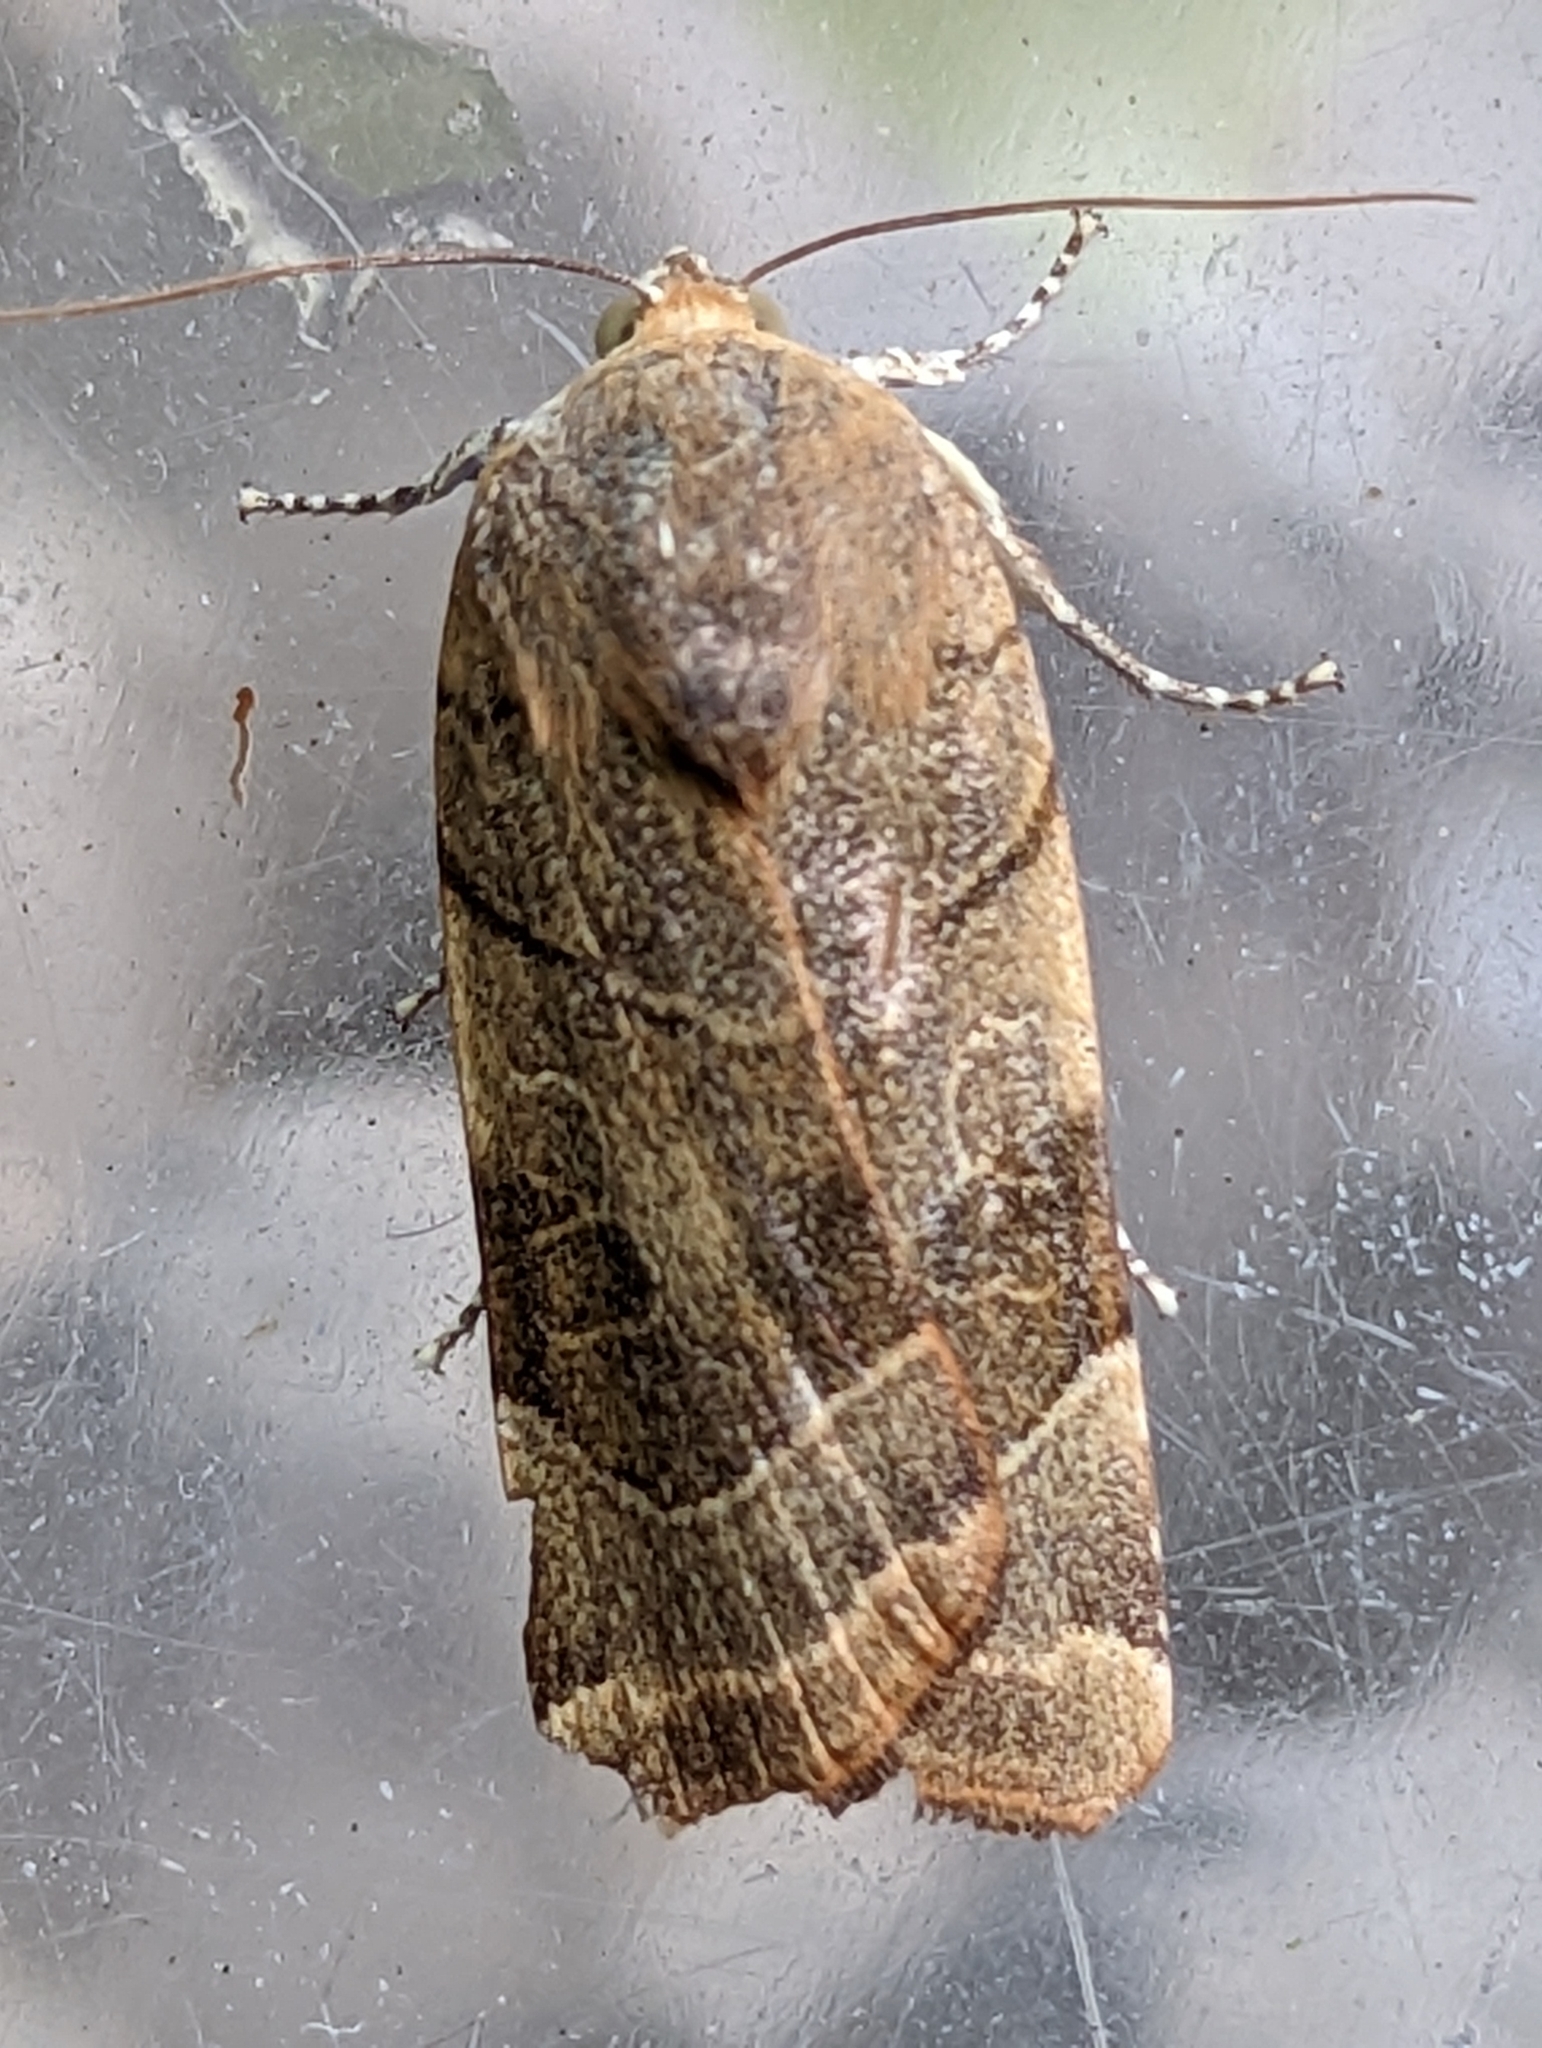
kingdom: Animalia
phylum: Arthropoda
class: Insecta
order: Lepidoptera
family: Noctuidae
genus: Noctua
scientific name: Noctua fimbriata
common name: Broad-bordered yellow underwing
